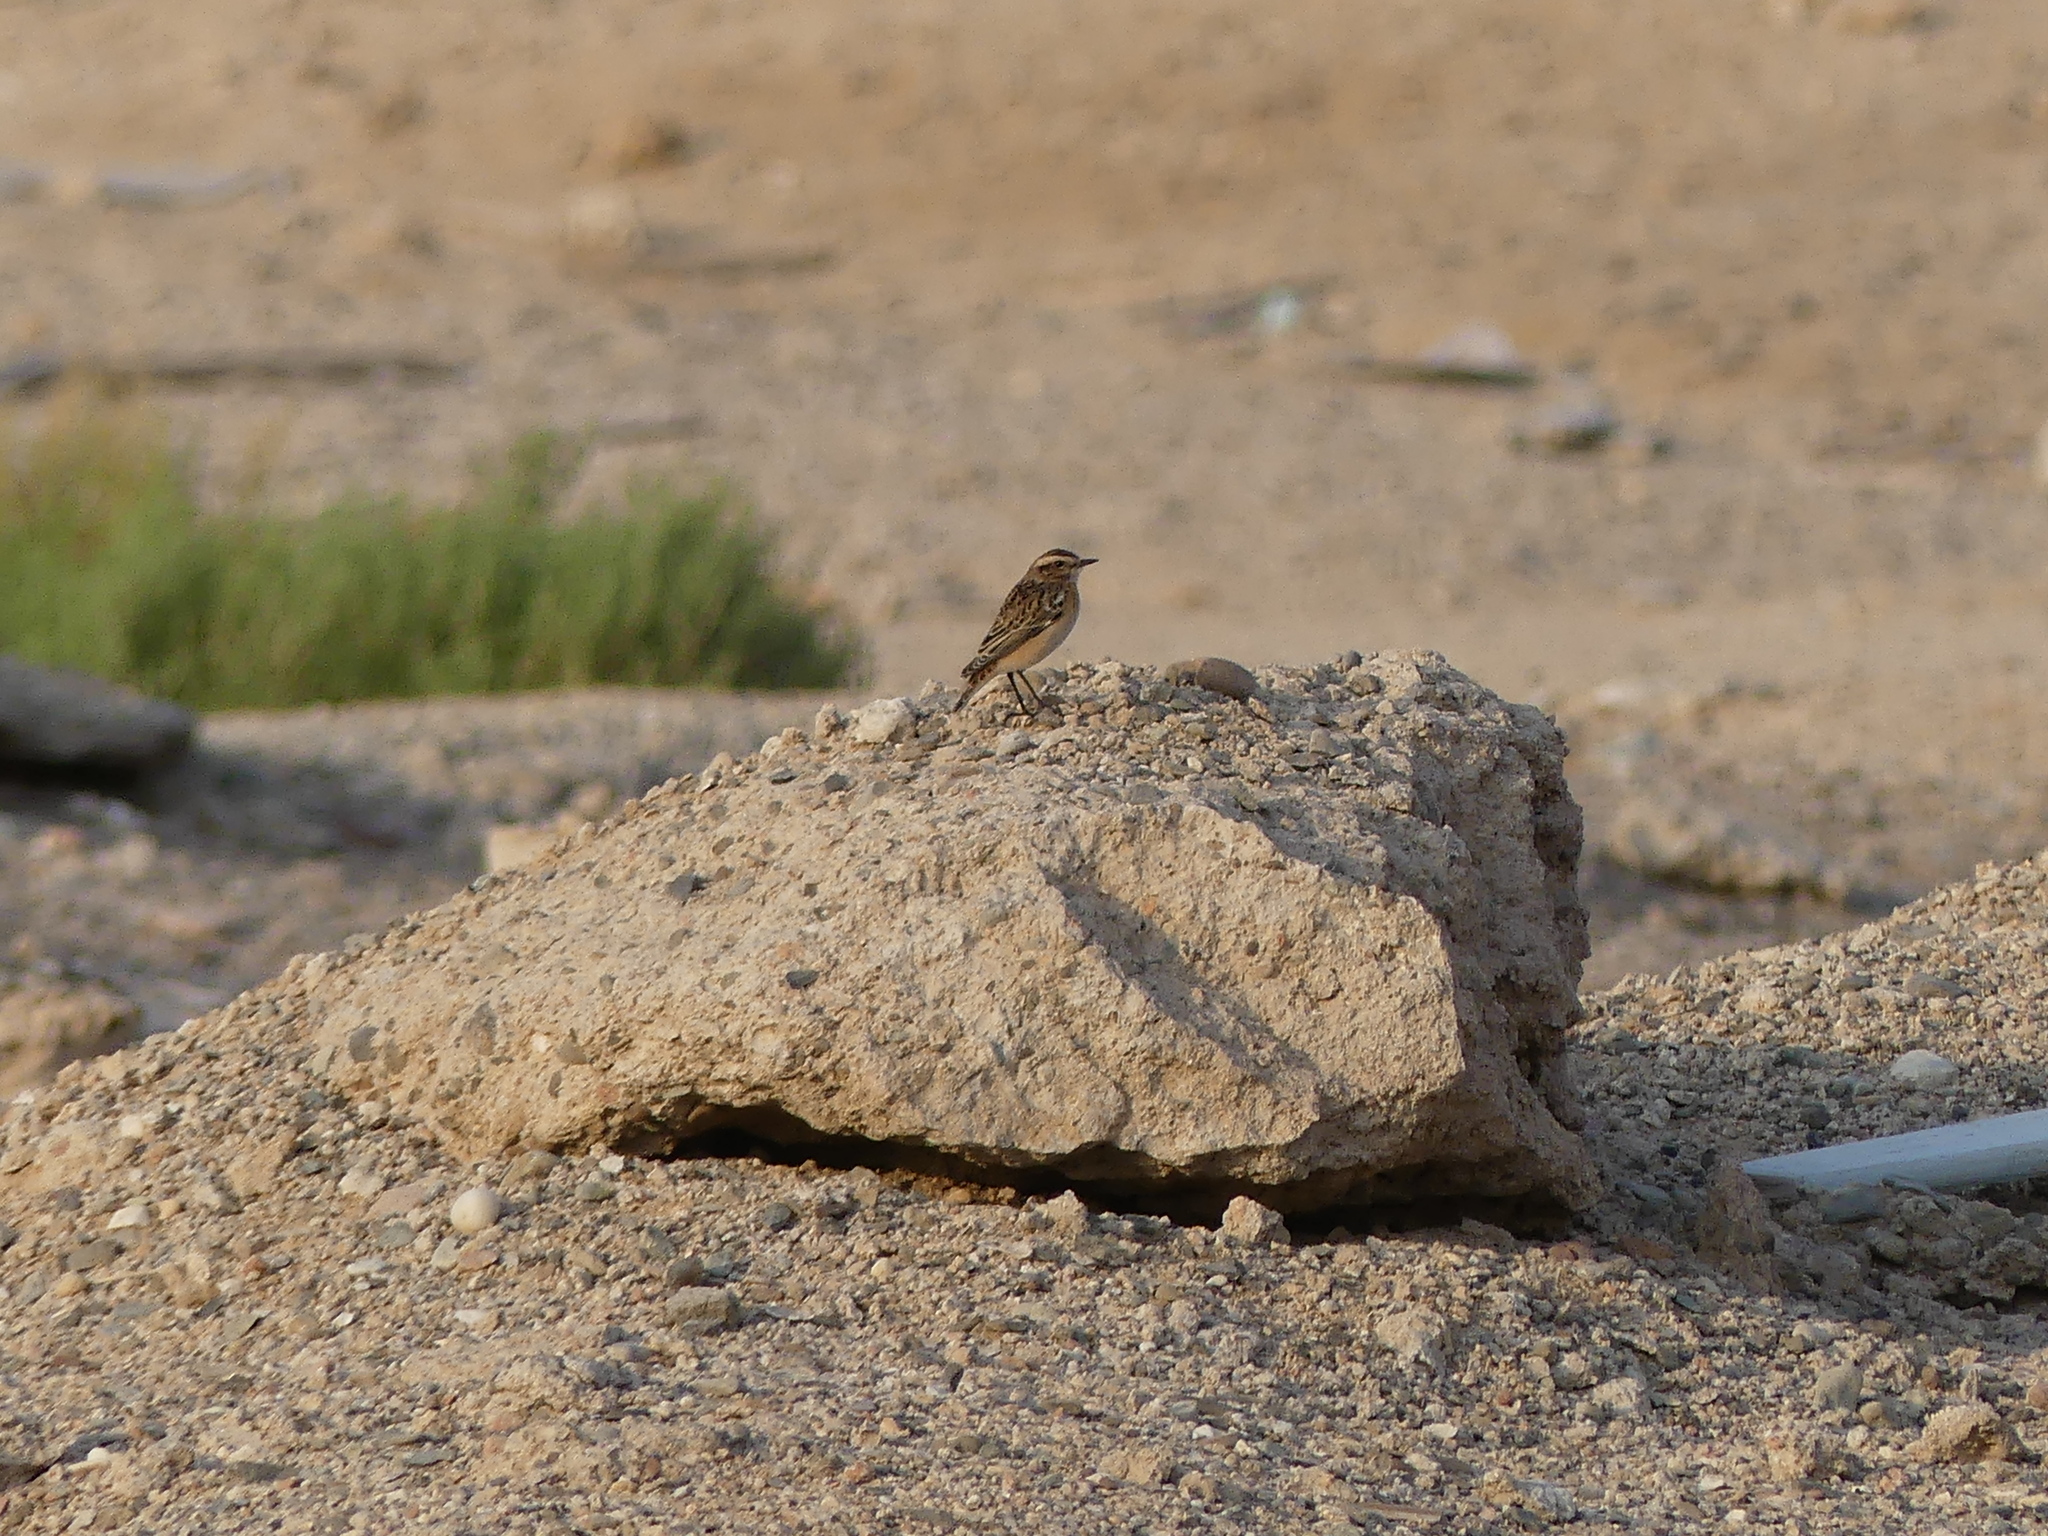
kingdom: Animalia
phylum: Chordata
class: Aves
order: Passeriformes
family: Muscicapidae
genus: Saxicola
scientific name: Saxicola rubetra
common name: Whinchat
